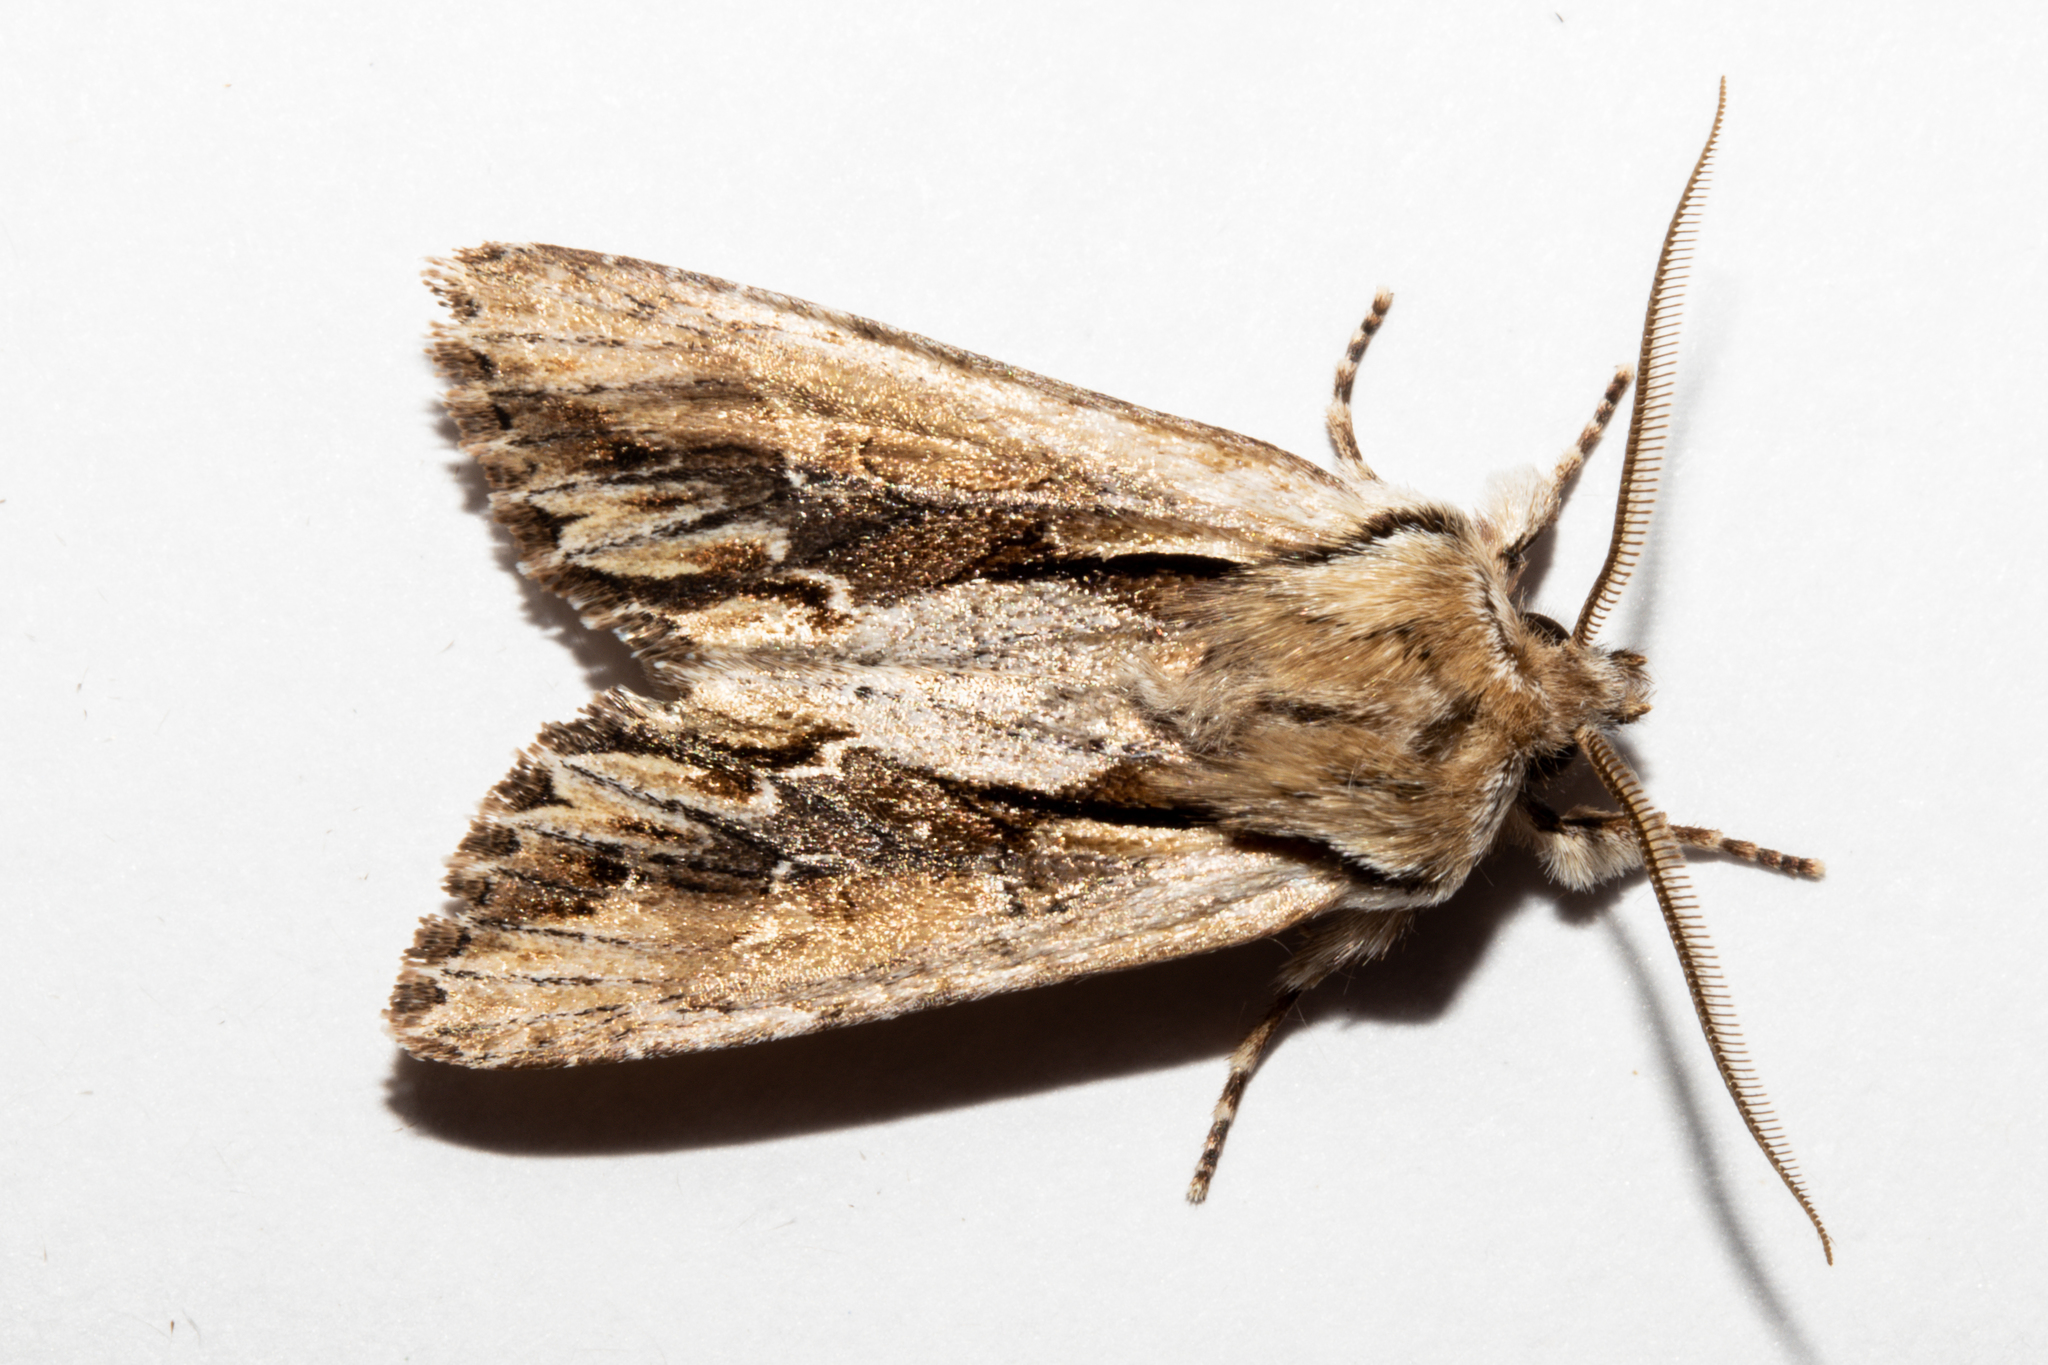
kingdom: Animalia
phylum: Arthropoda
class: Insecta
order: Lepidoptera
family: Noctuidae
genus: Ichneutica
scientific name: Ichneutica
